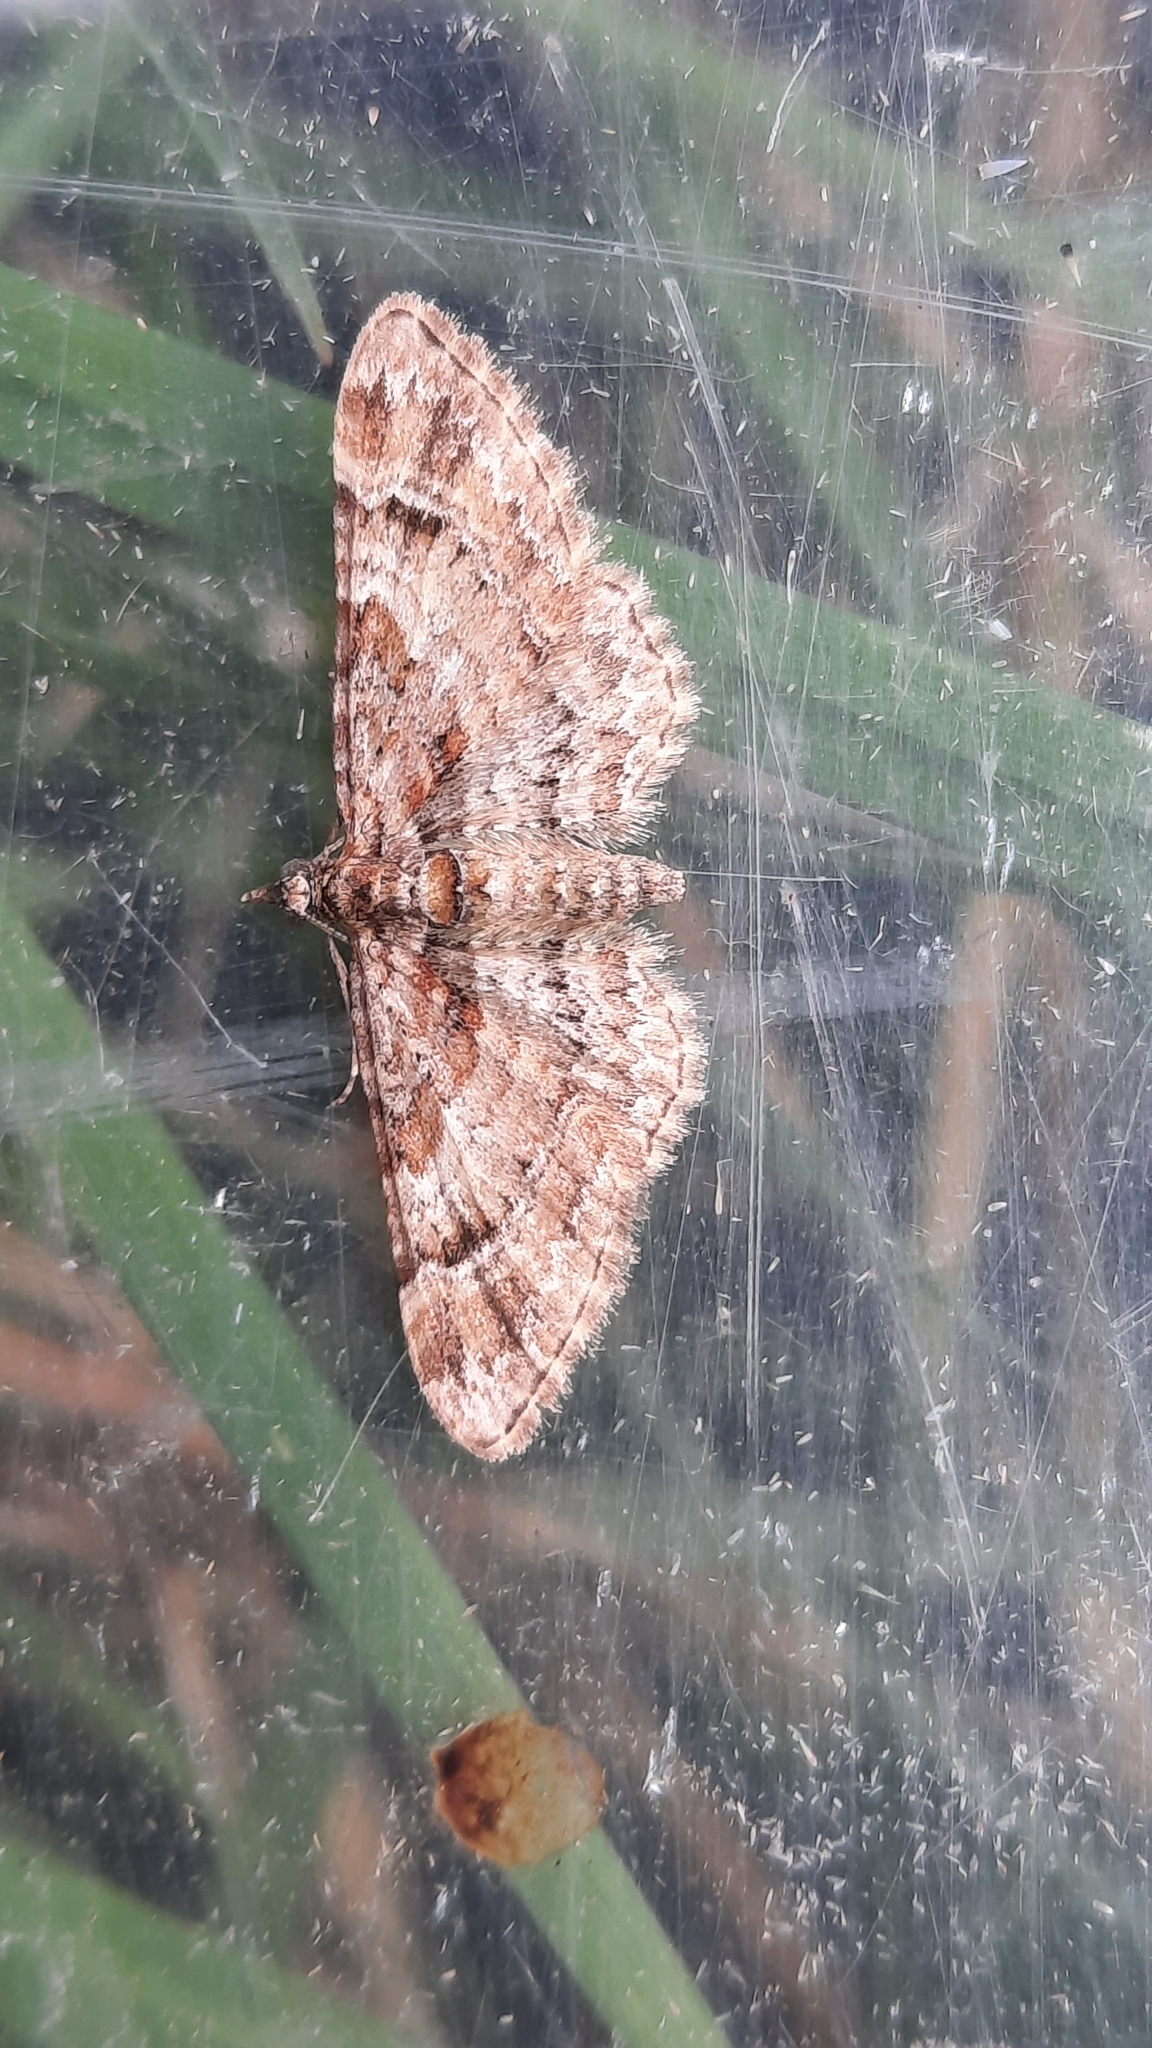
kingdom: Animalia
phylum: Arthropoda
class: Insecta
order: Lepidoptera
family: Geometridae
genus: Gymnoscelis
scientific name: Gymnoscelis rufifasciata
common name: Double-striped pug
